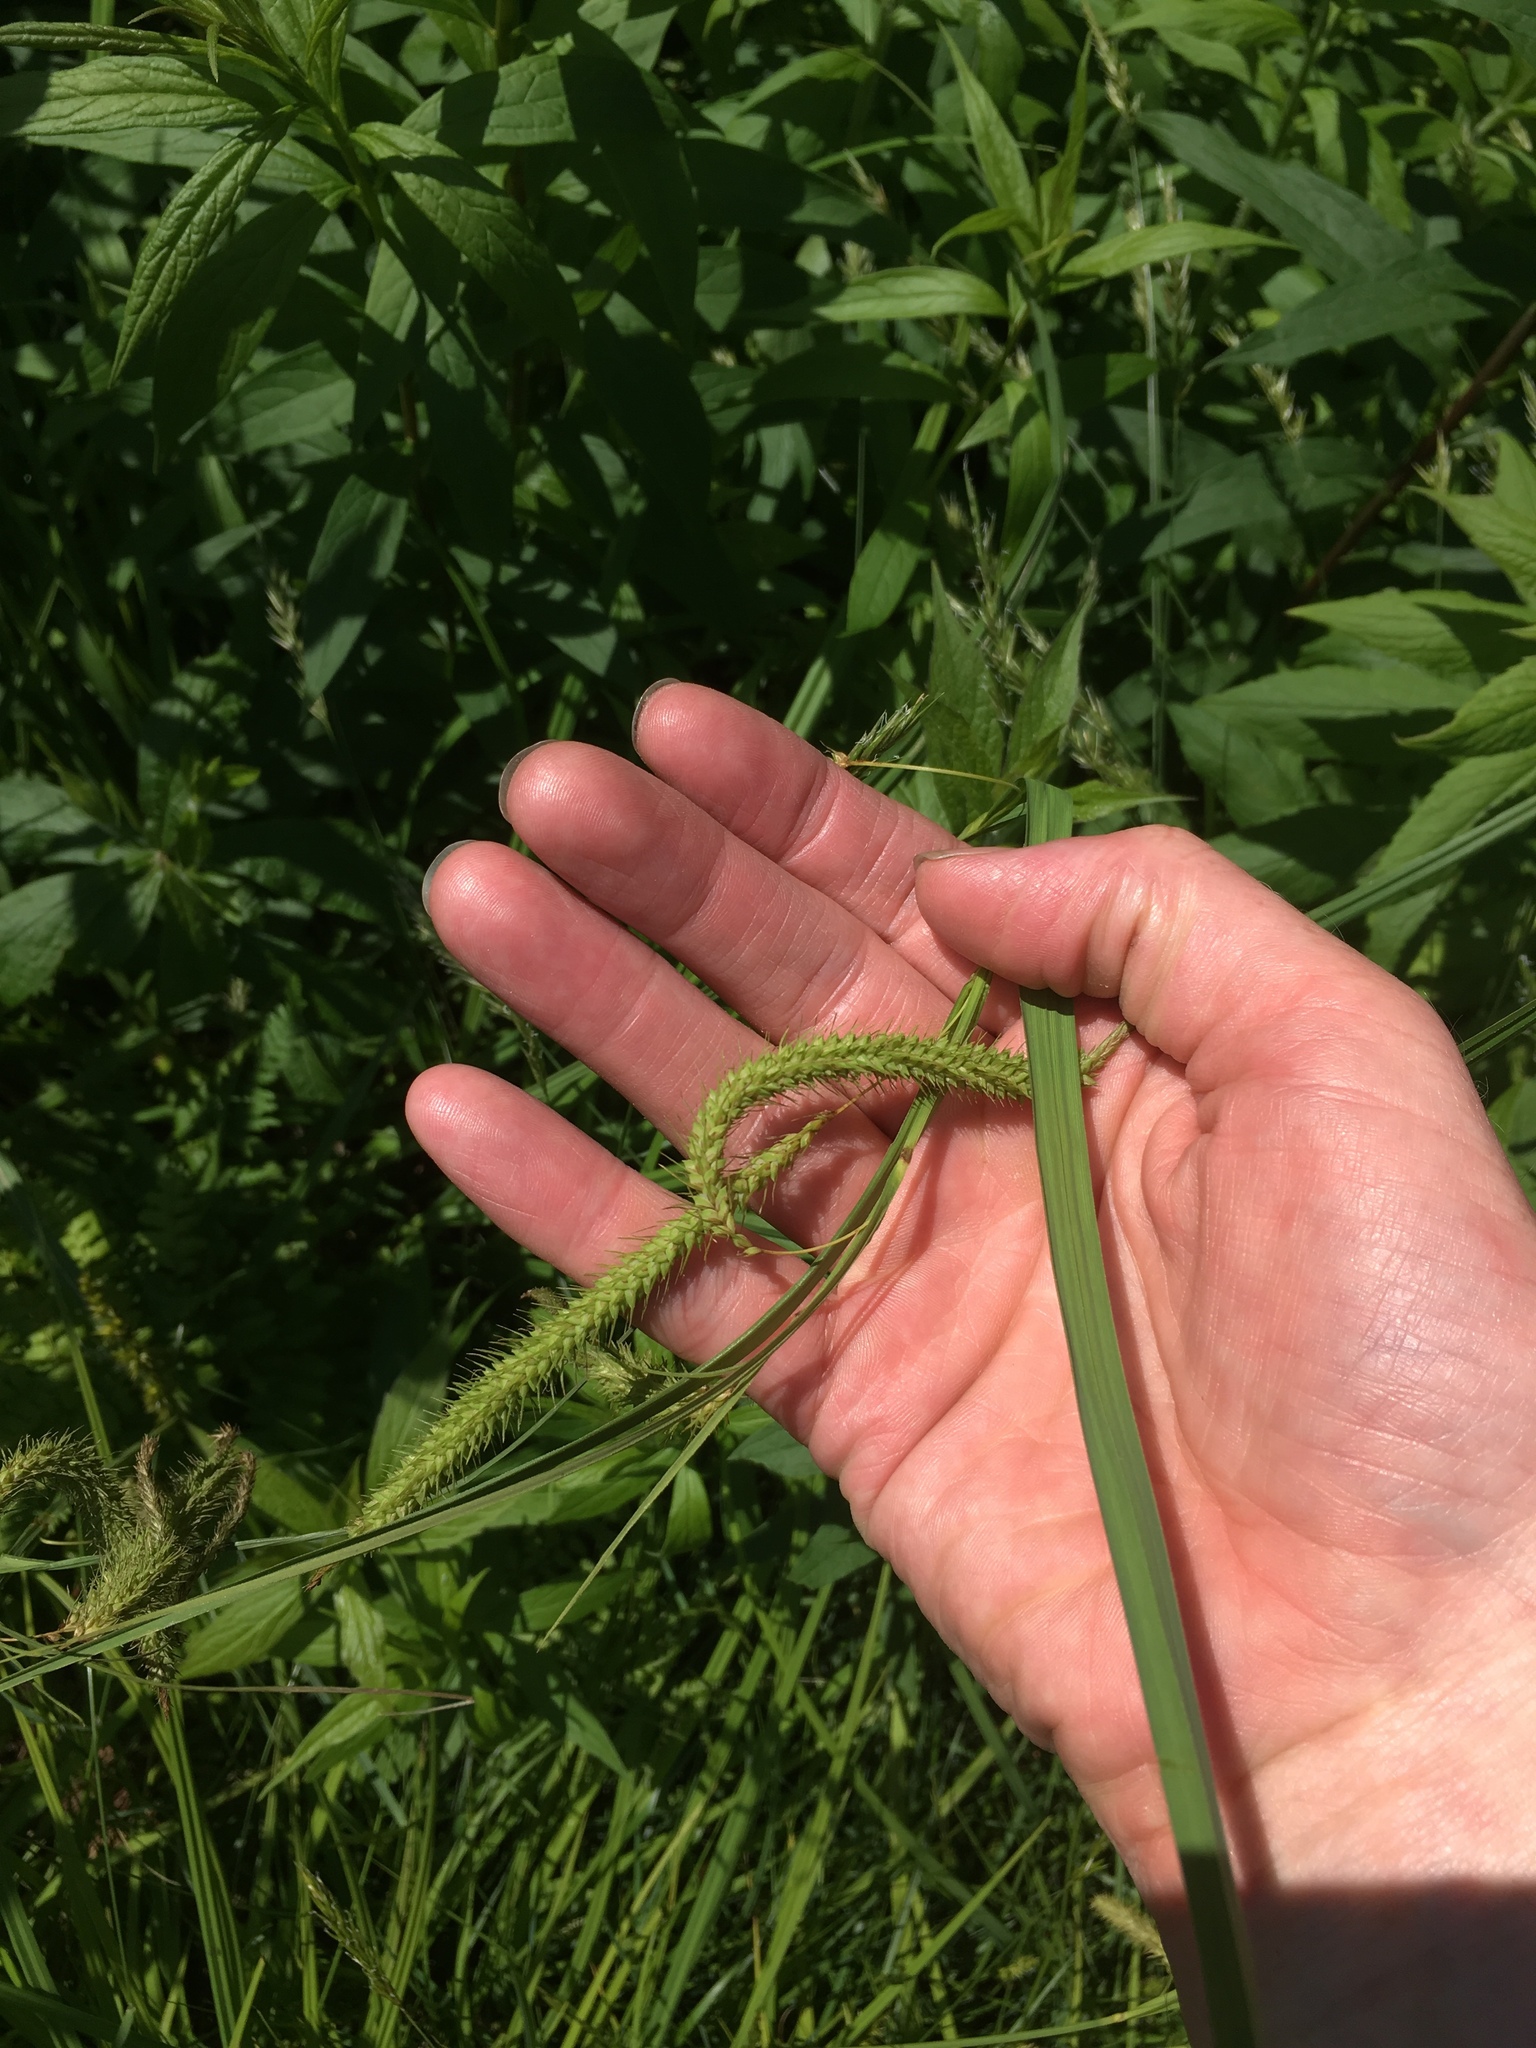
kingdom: Plantae
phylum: Tracheophyta
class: Liliopsida
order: Poales
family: Cyperaceae
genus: Carex
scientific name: Carex gynandra
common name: Nodding sedge
